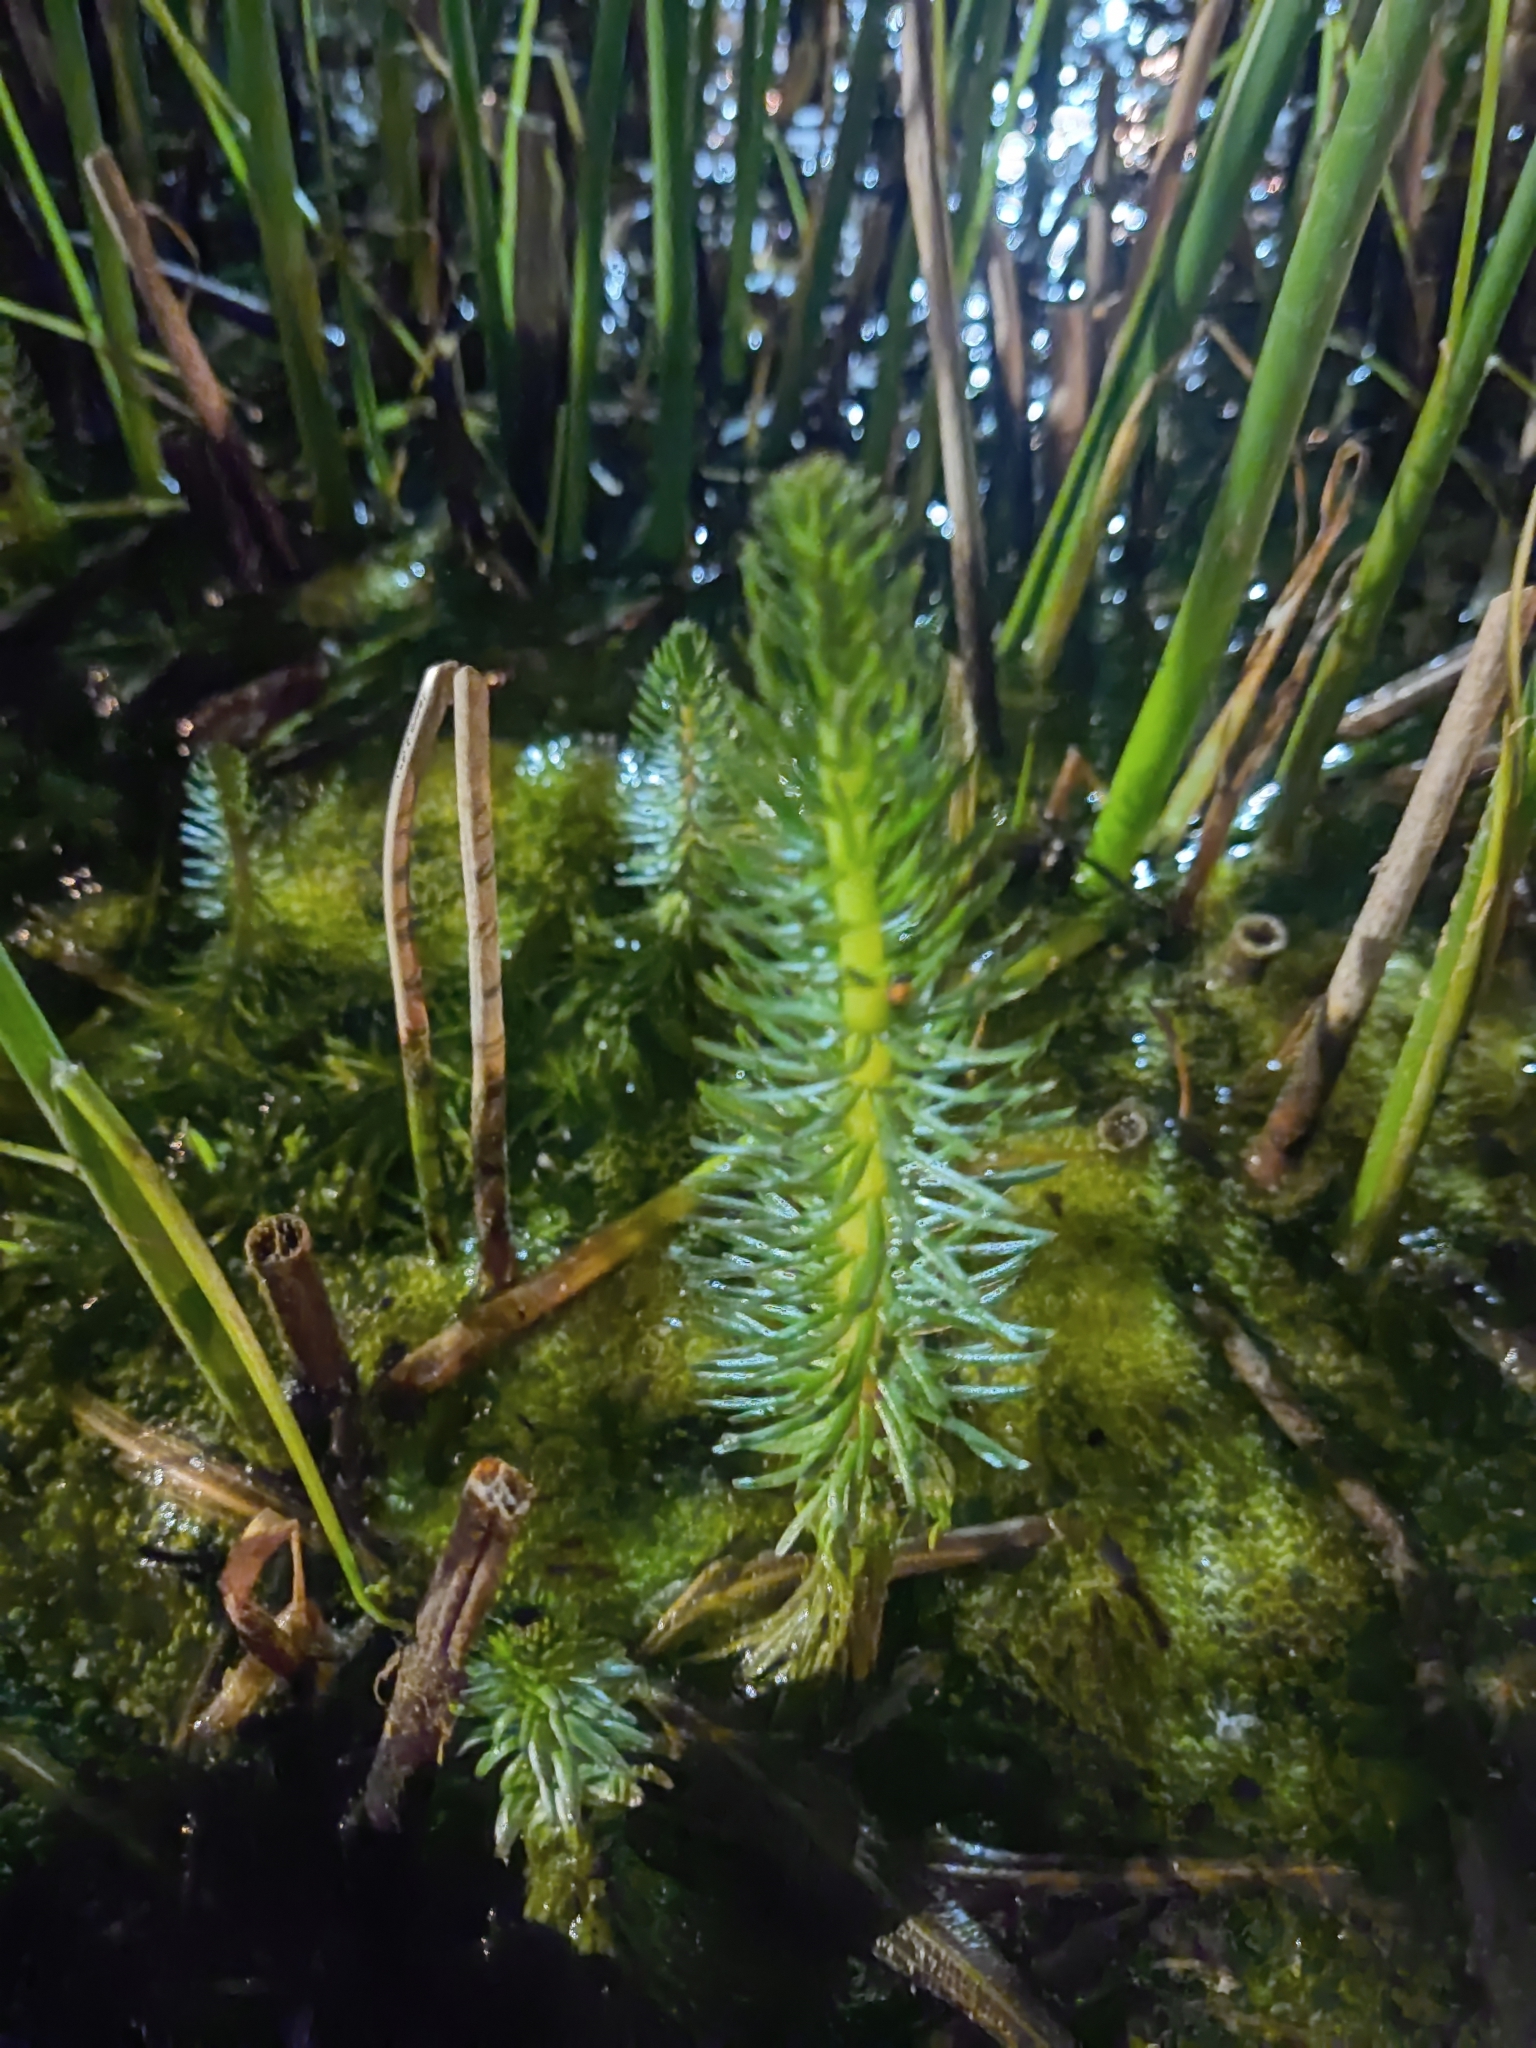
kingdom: Plantae
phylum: Tracheophyta
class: Magnoliopsida
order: Lamiales
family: Plantaginaceae
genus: Hippuris
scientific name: Hippuris vulgaris
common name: Mare's-tail
